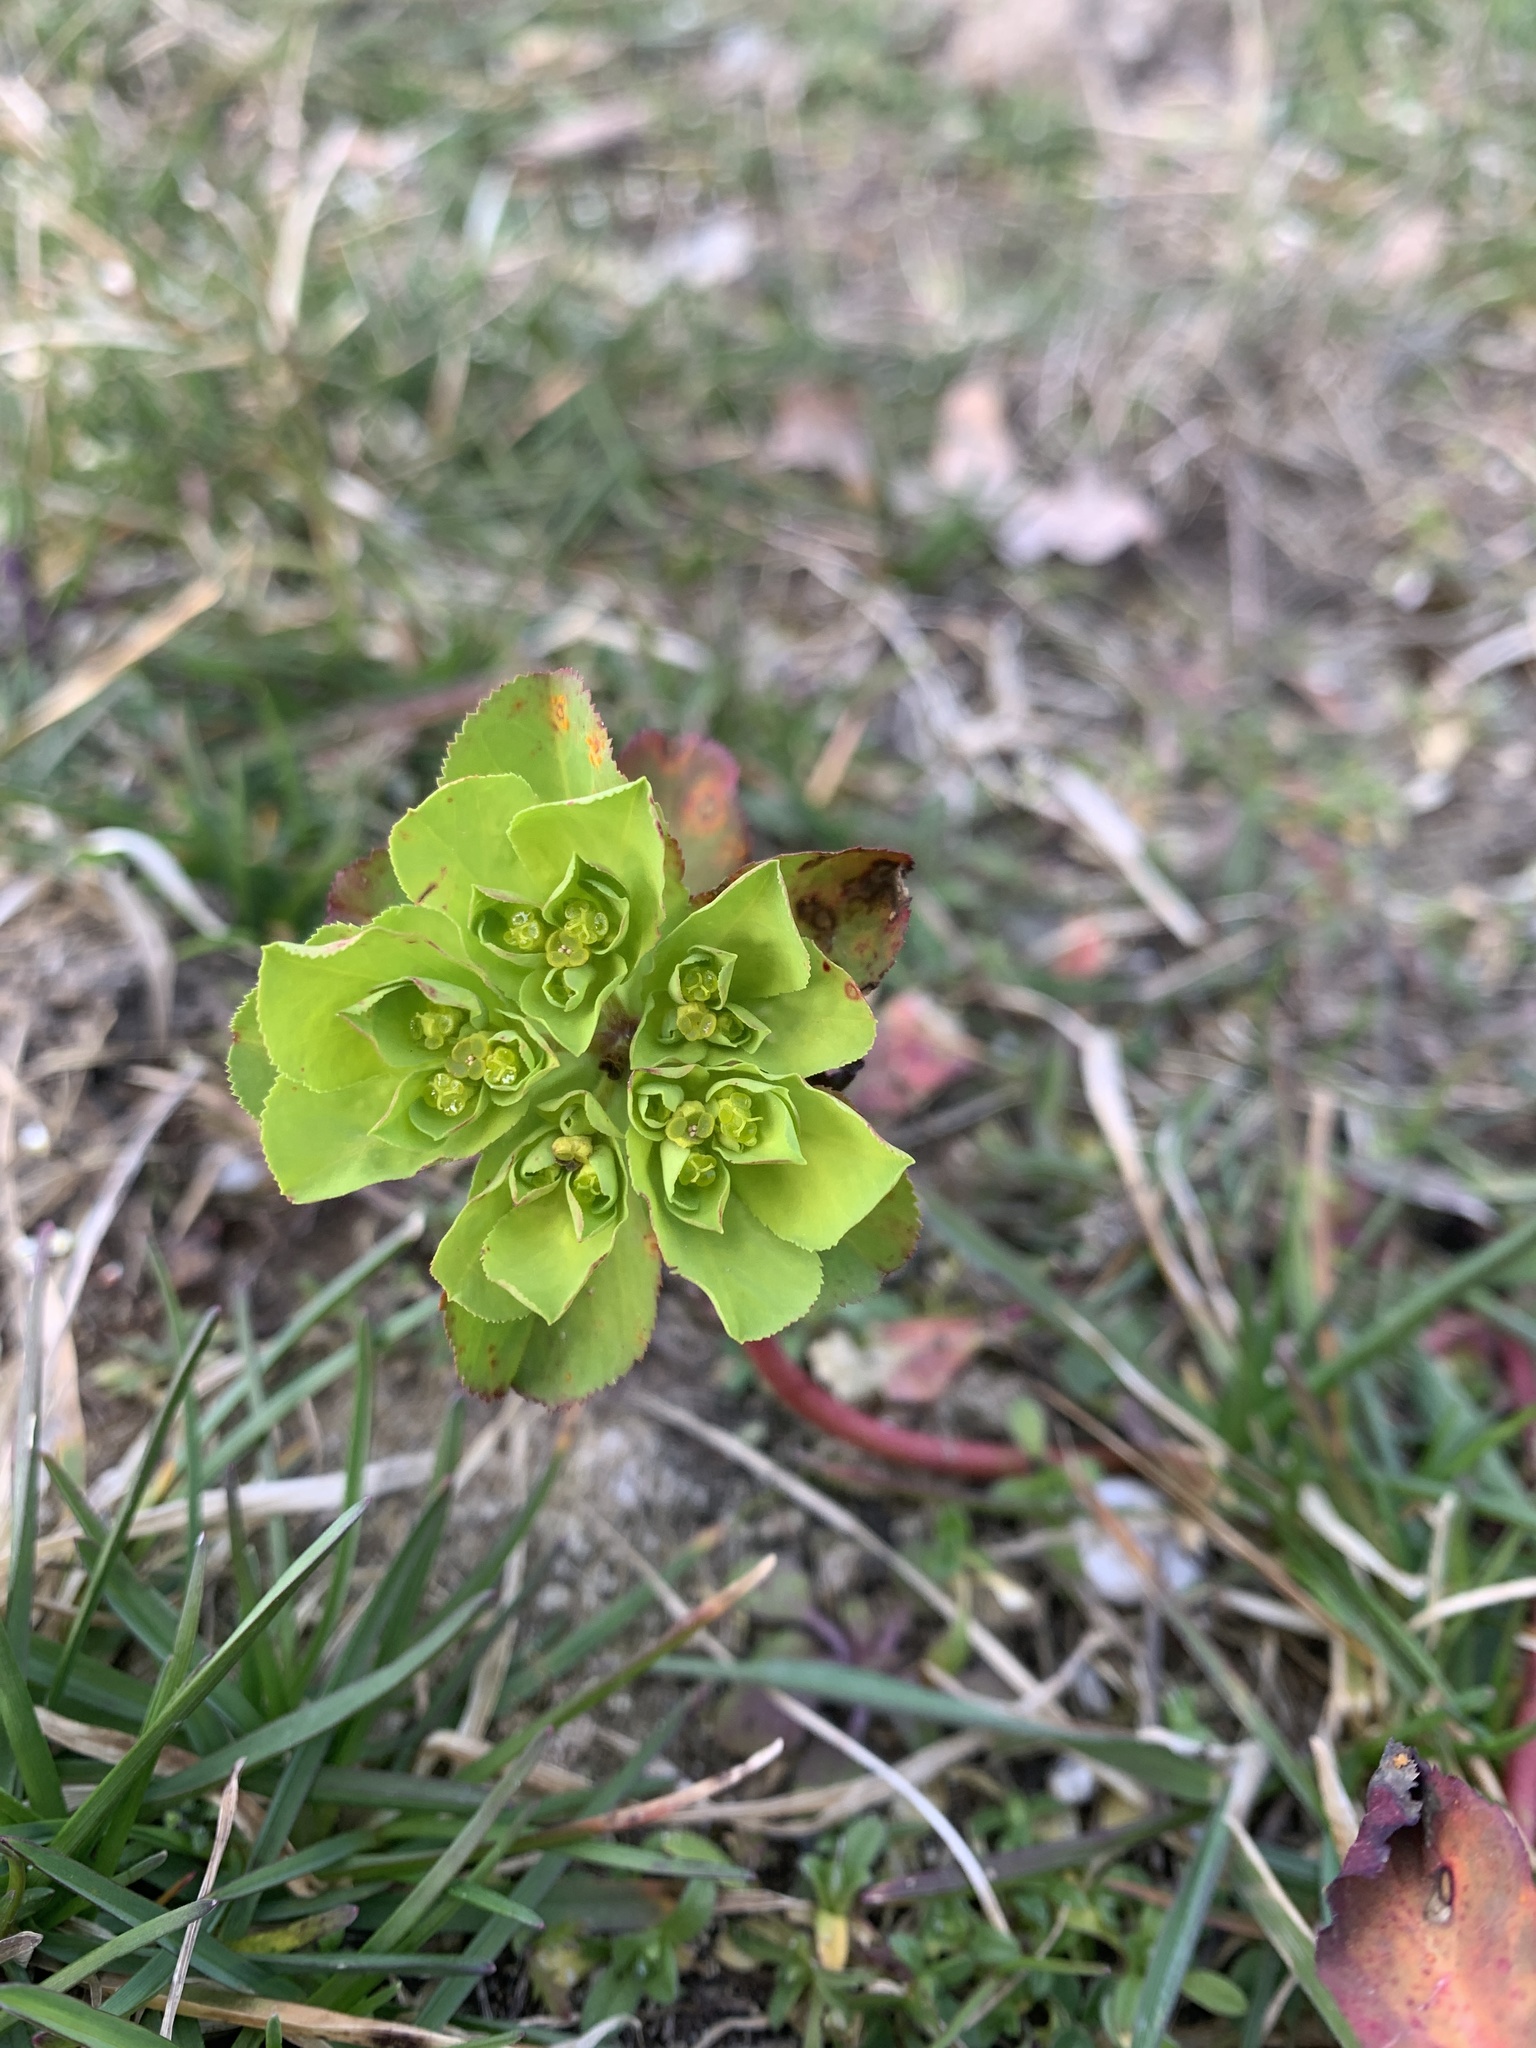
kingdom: Plantae
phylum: Tracheophyta
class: Magnoliopsida
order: Malpighiales
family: Euphorbiaceae
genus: Euphorbia
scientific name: Euphorbia helioscopia
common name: Sun spurge
